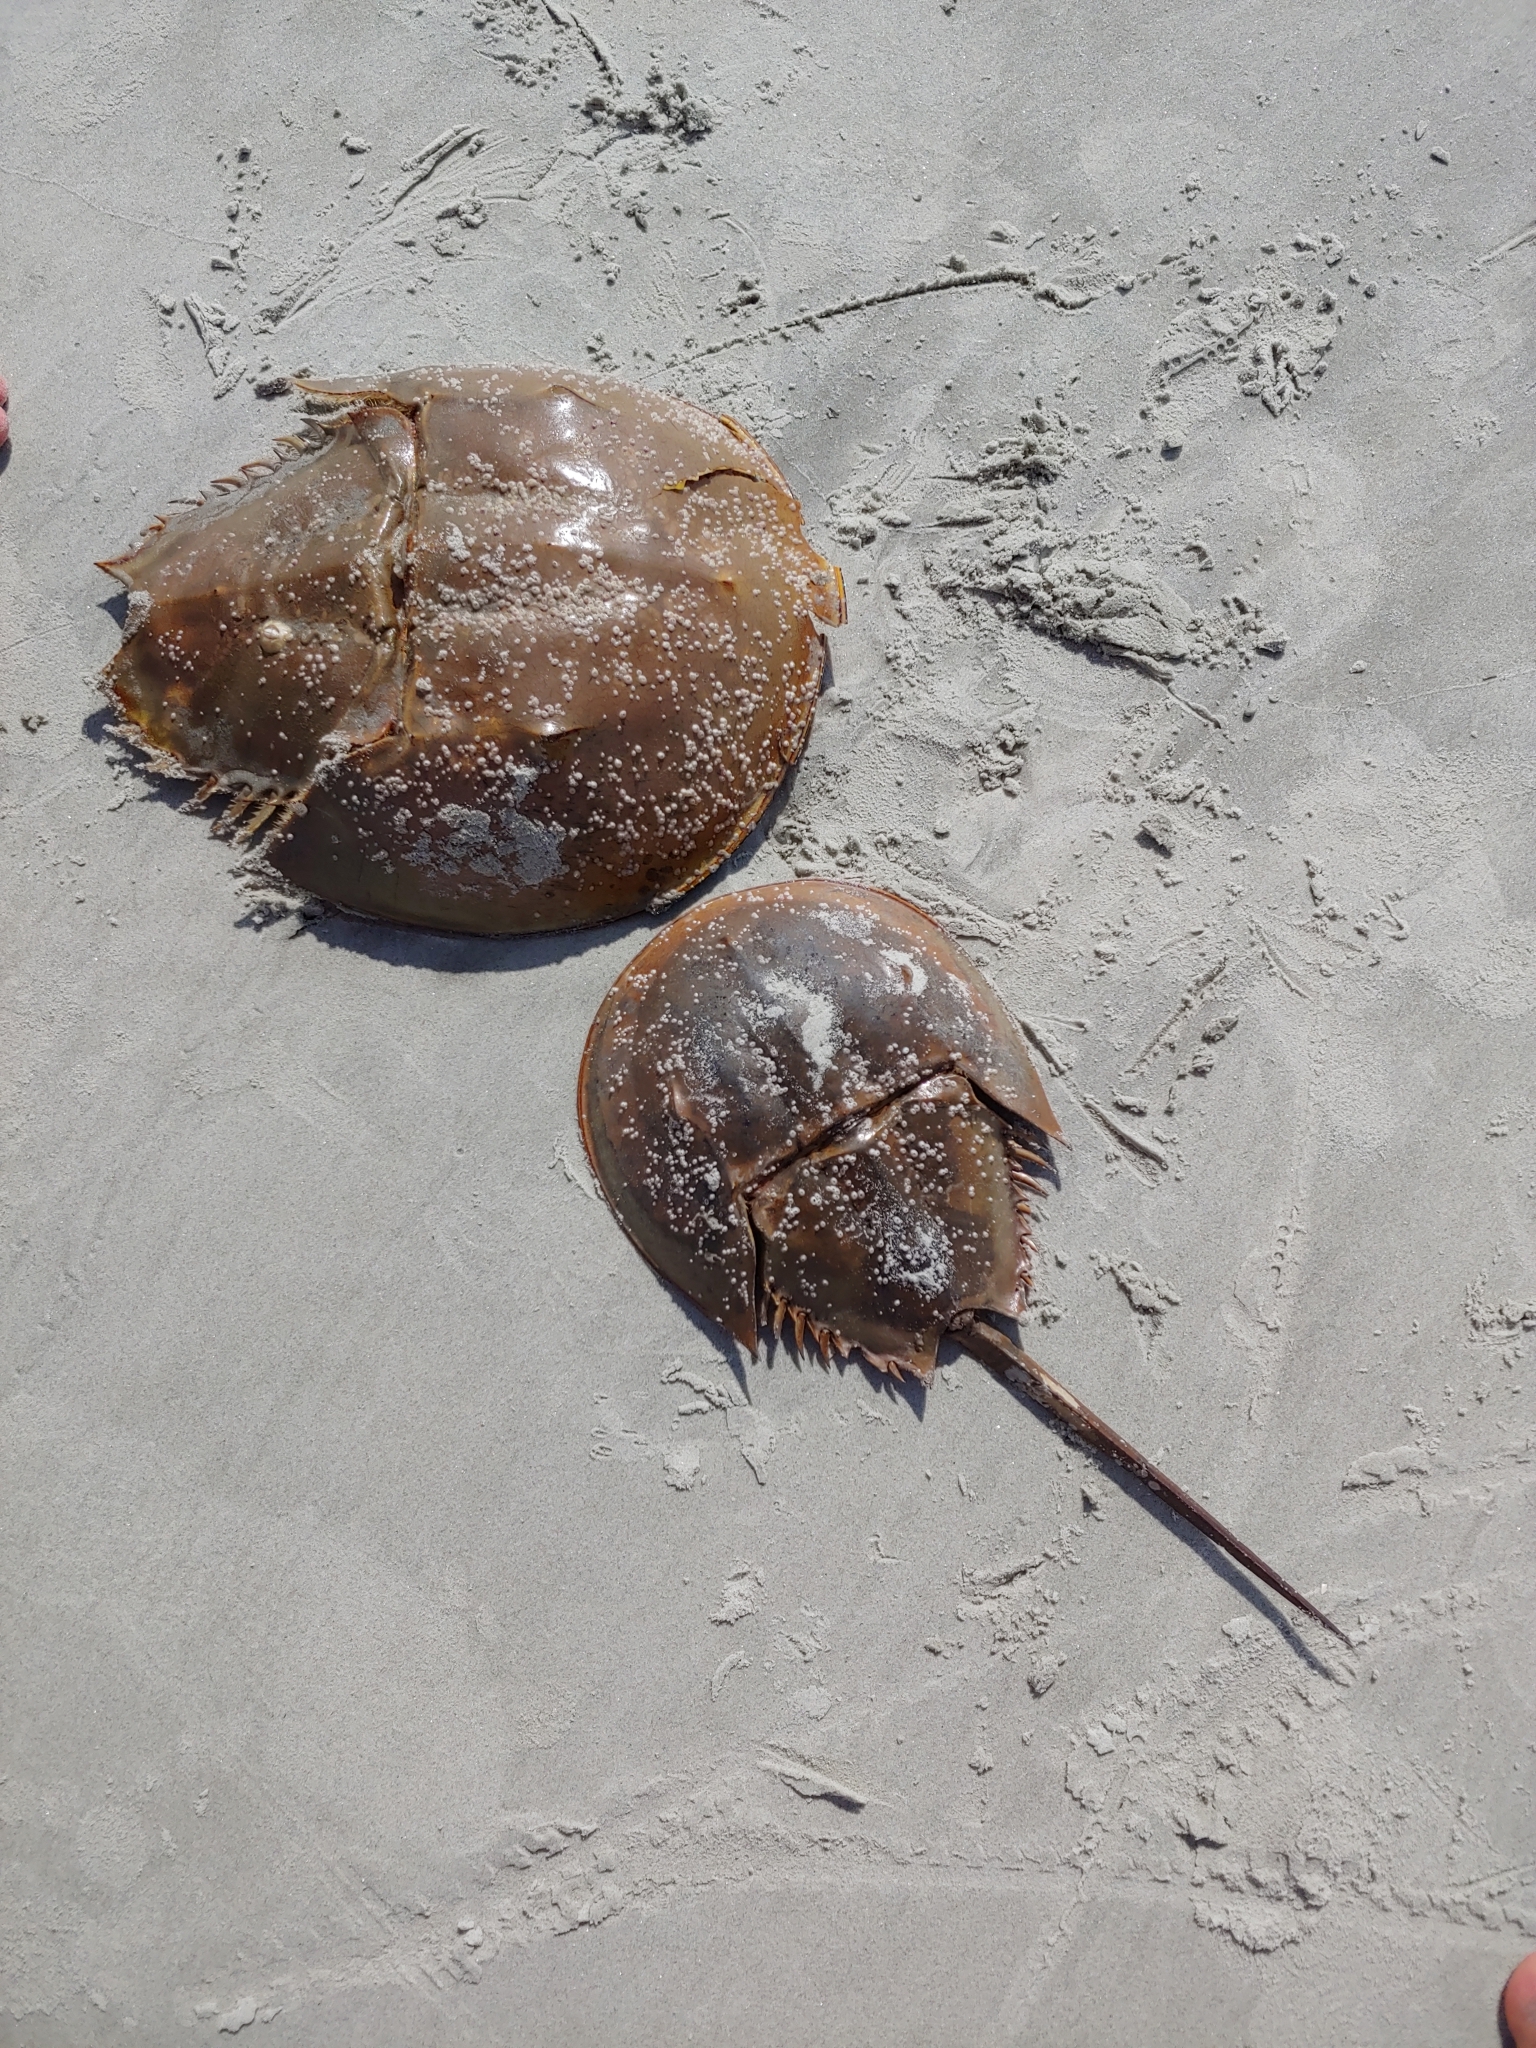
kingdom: Animalia
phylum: Arthropoda
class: Merostomata
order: Xiphosurida
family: Limulidae
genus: Limulus
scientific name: Limulus polyphemus
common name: Horseshoe crab
